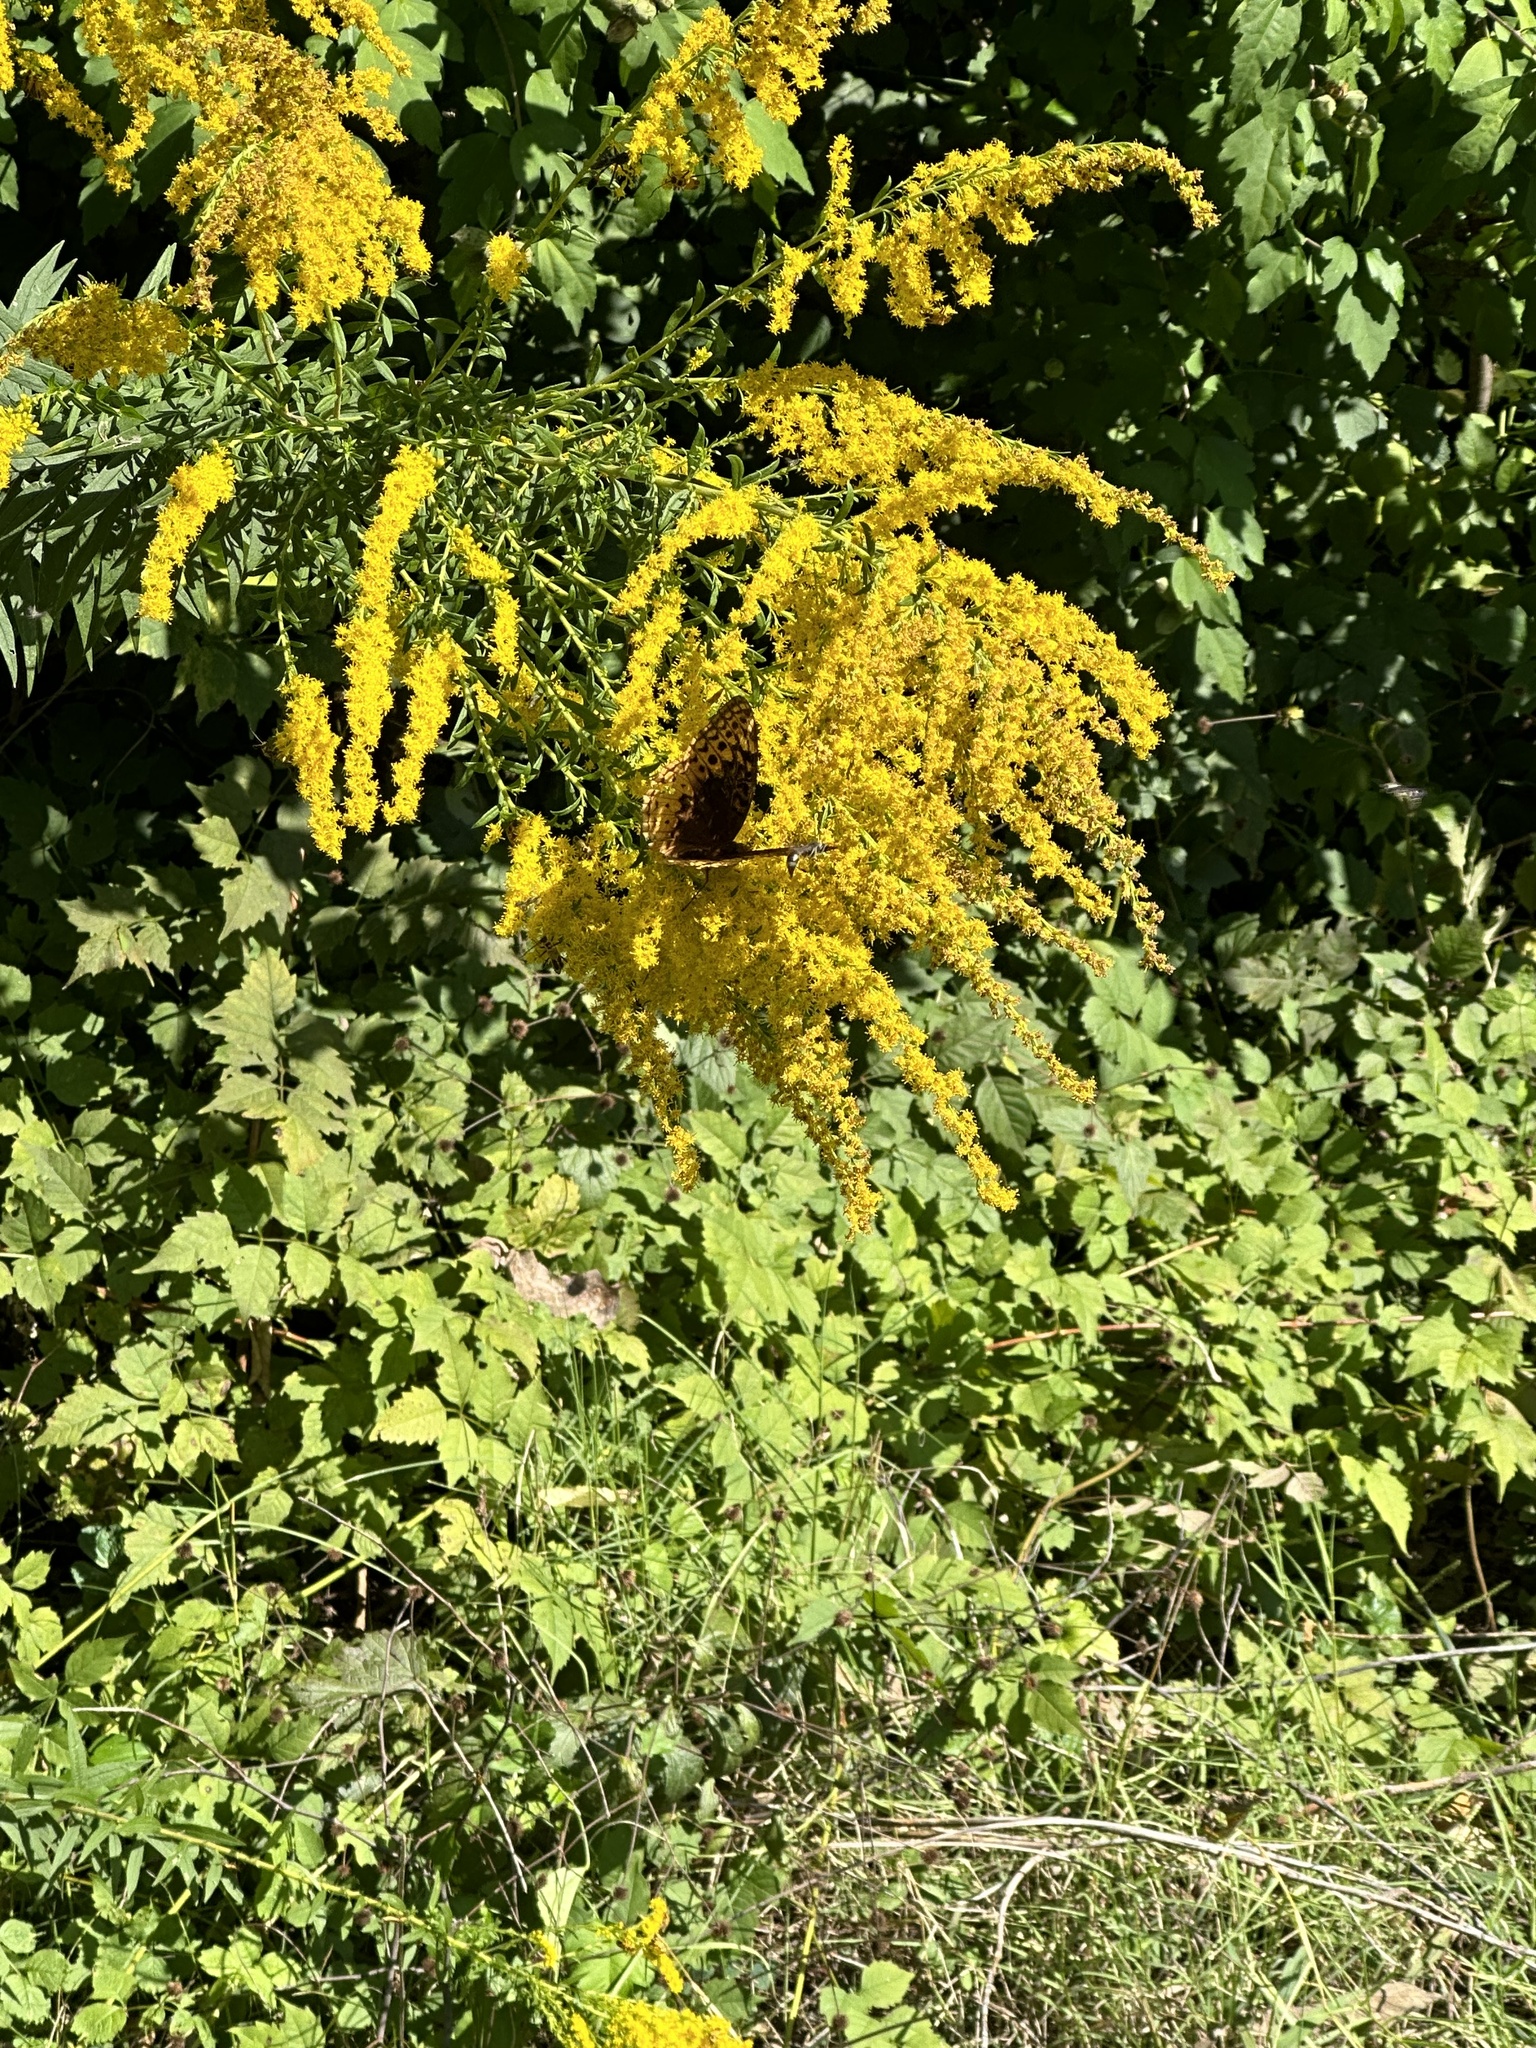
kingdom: Animalia
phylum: Arthropoda
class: Insecta
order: Lepidoptera
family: Nymphalidae
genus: Speyeria
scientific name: Speyeria cybele
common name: Great spangled fritillary
